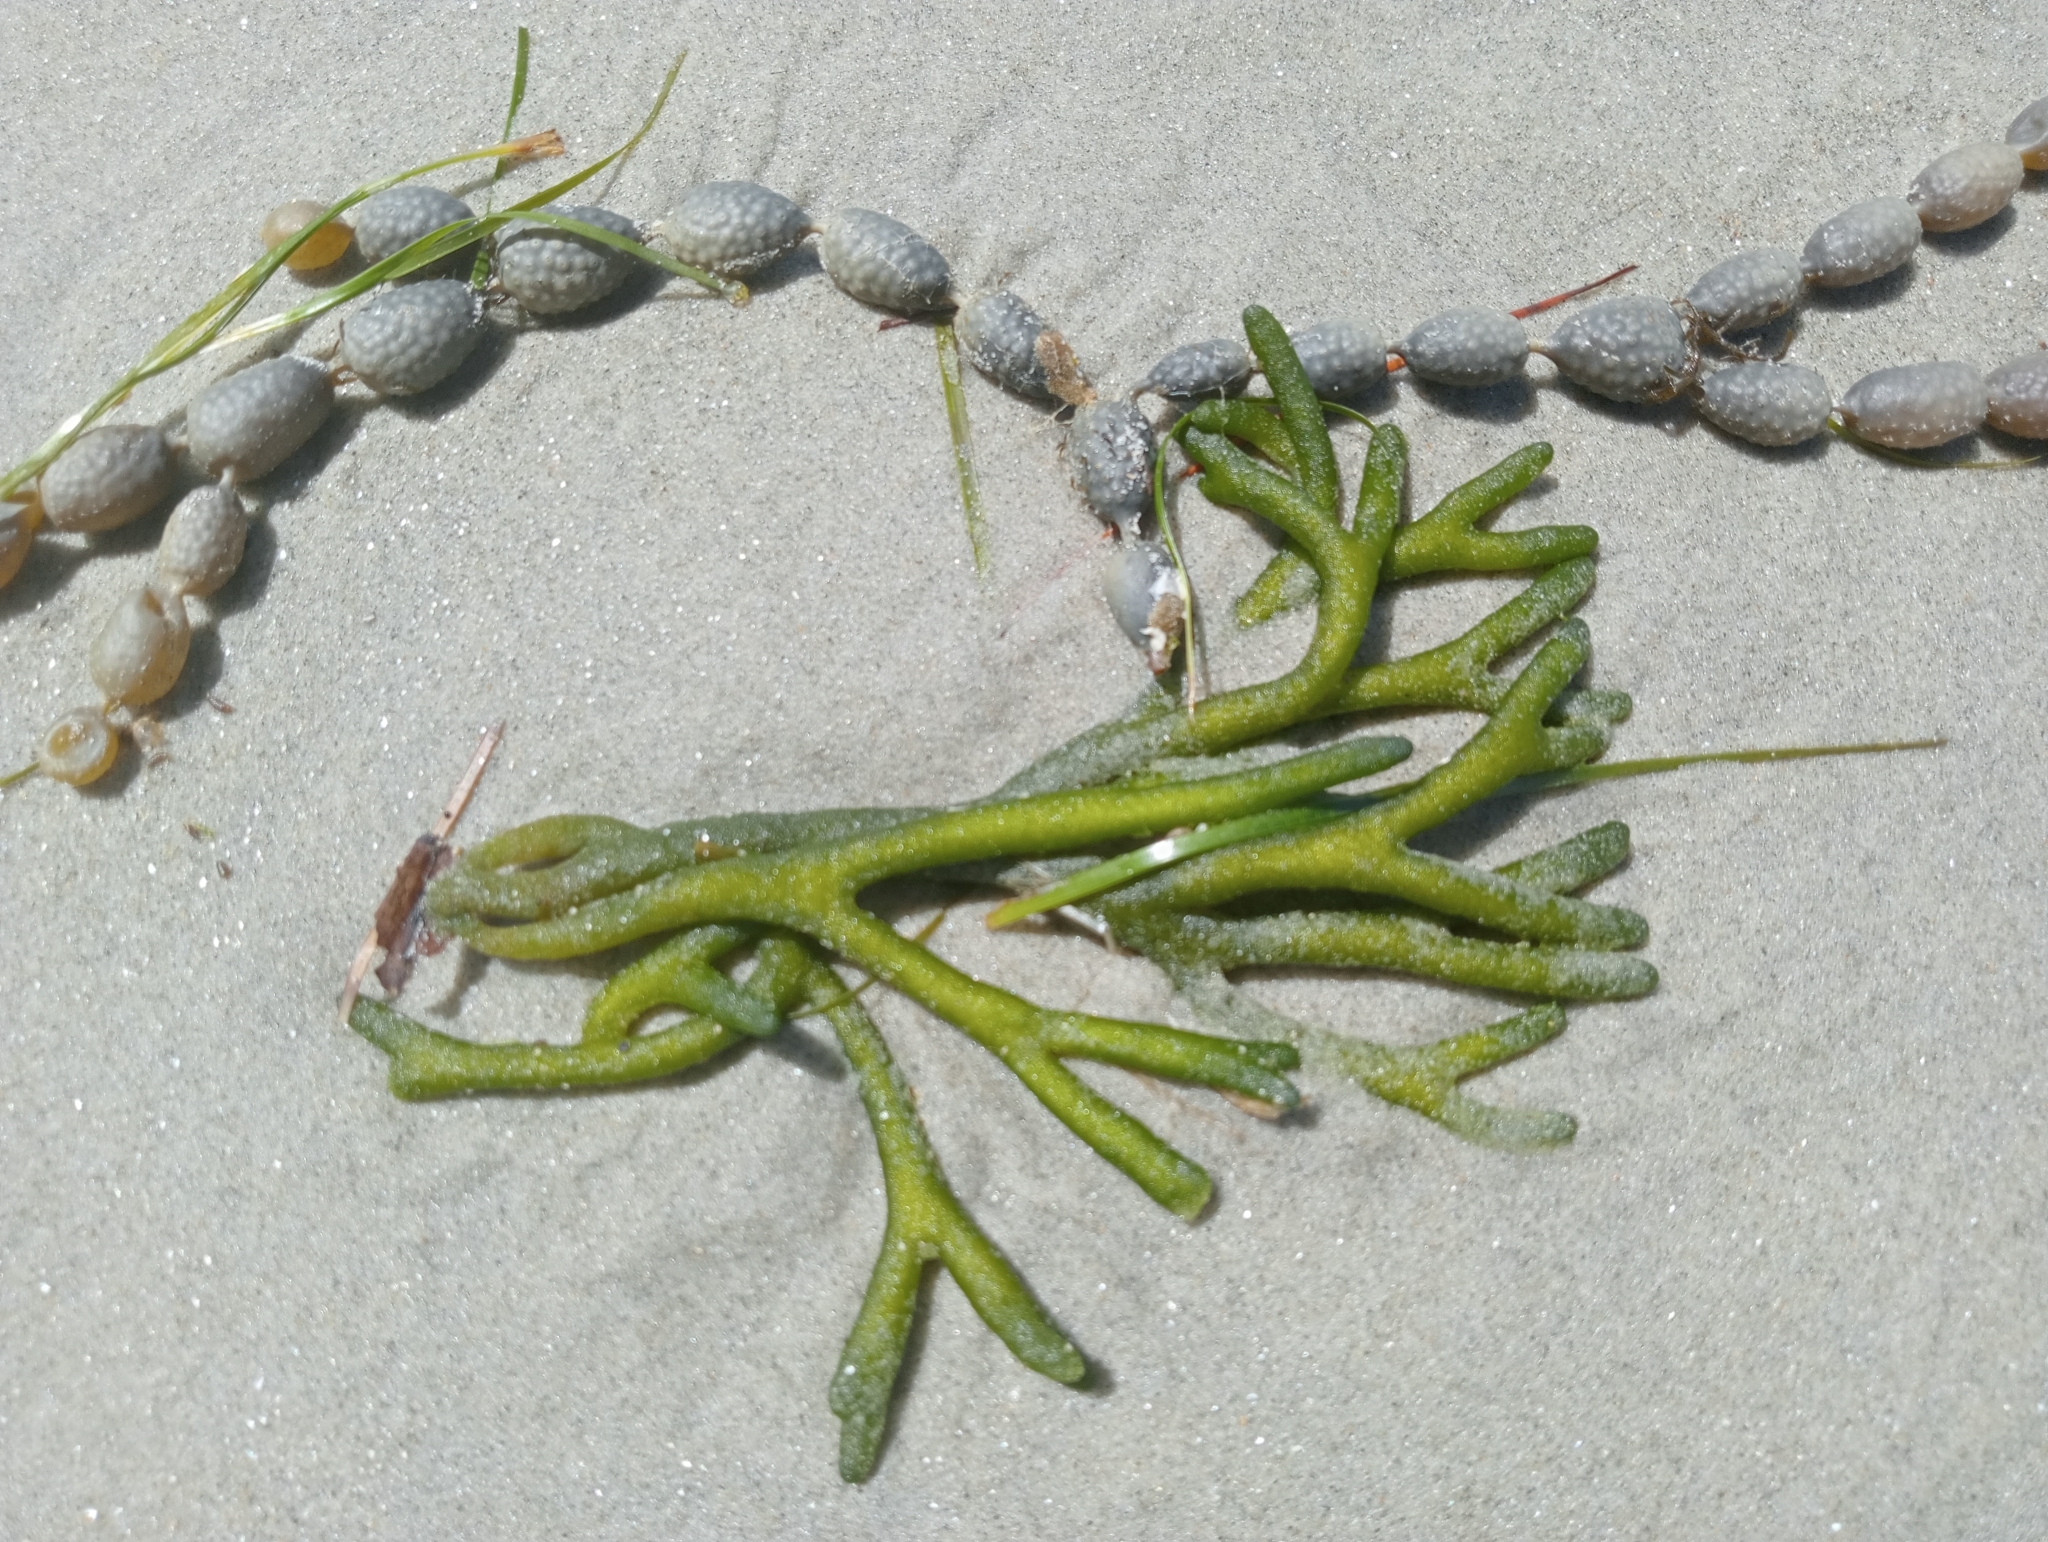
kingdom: Chromista
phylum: Ochrophyta
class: Phaeophyceae
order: Fucales
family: Hormosiraceae
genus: Hormosira
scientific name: Hormosira banksii
